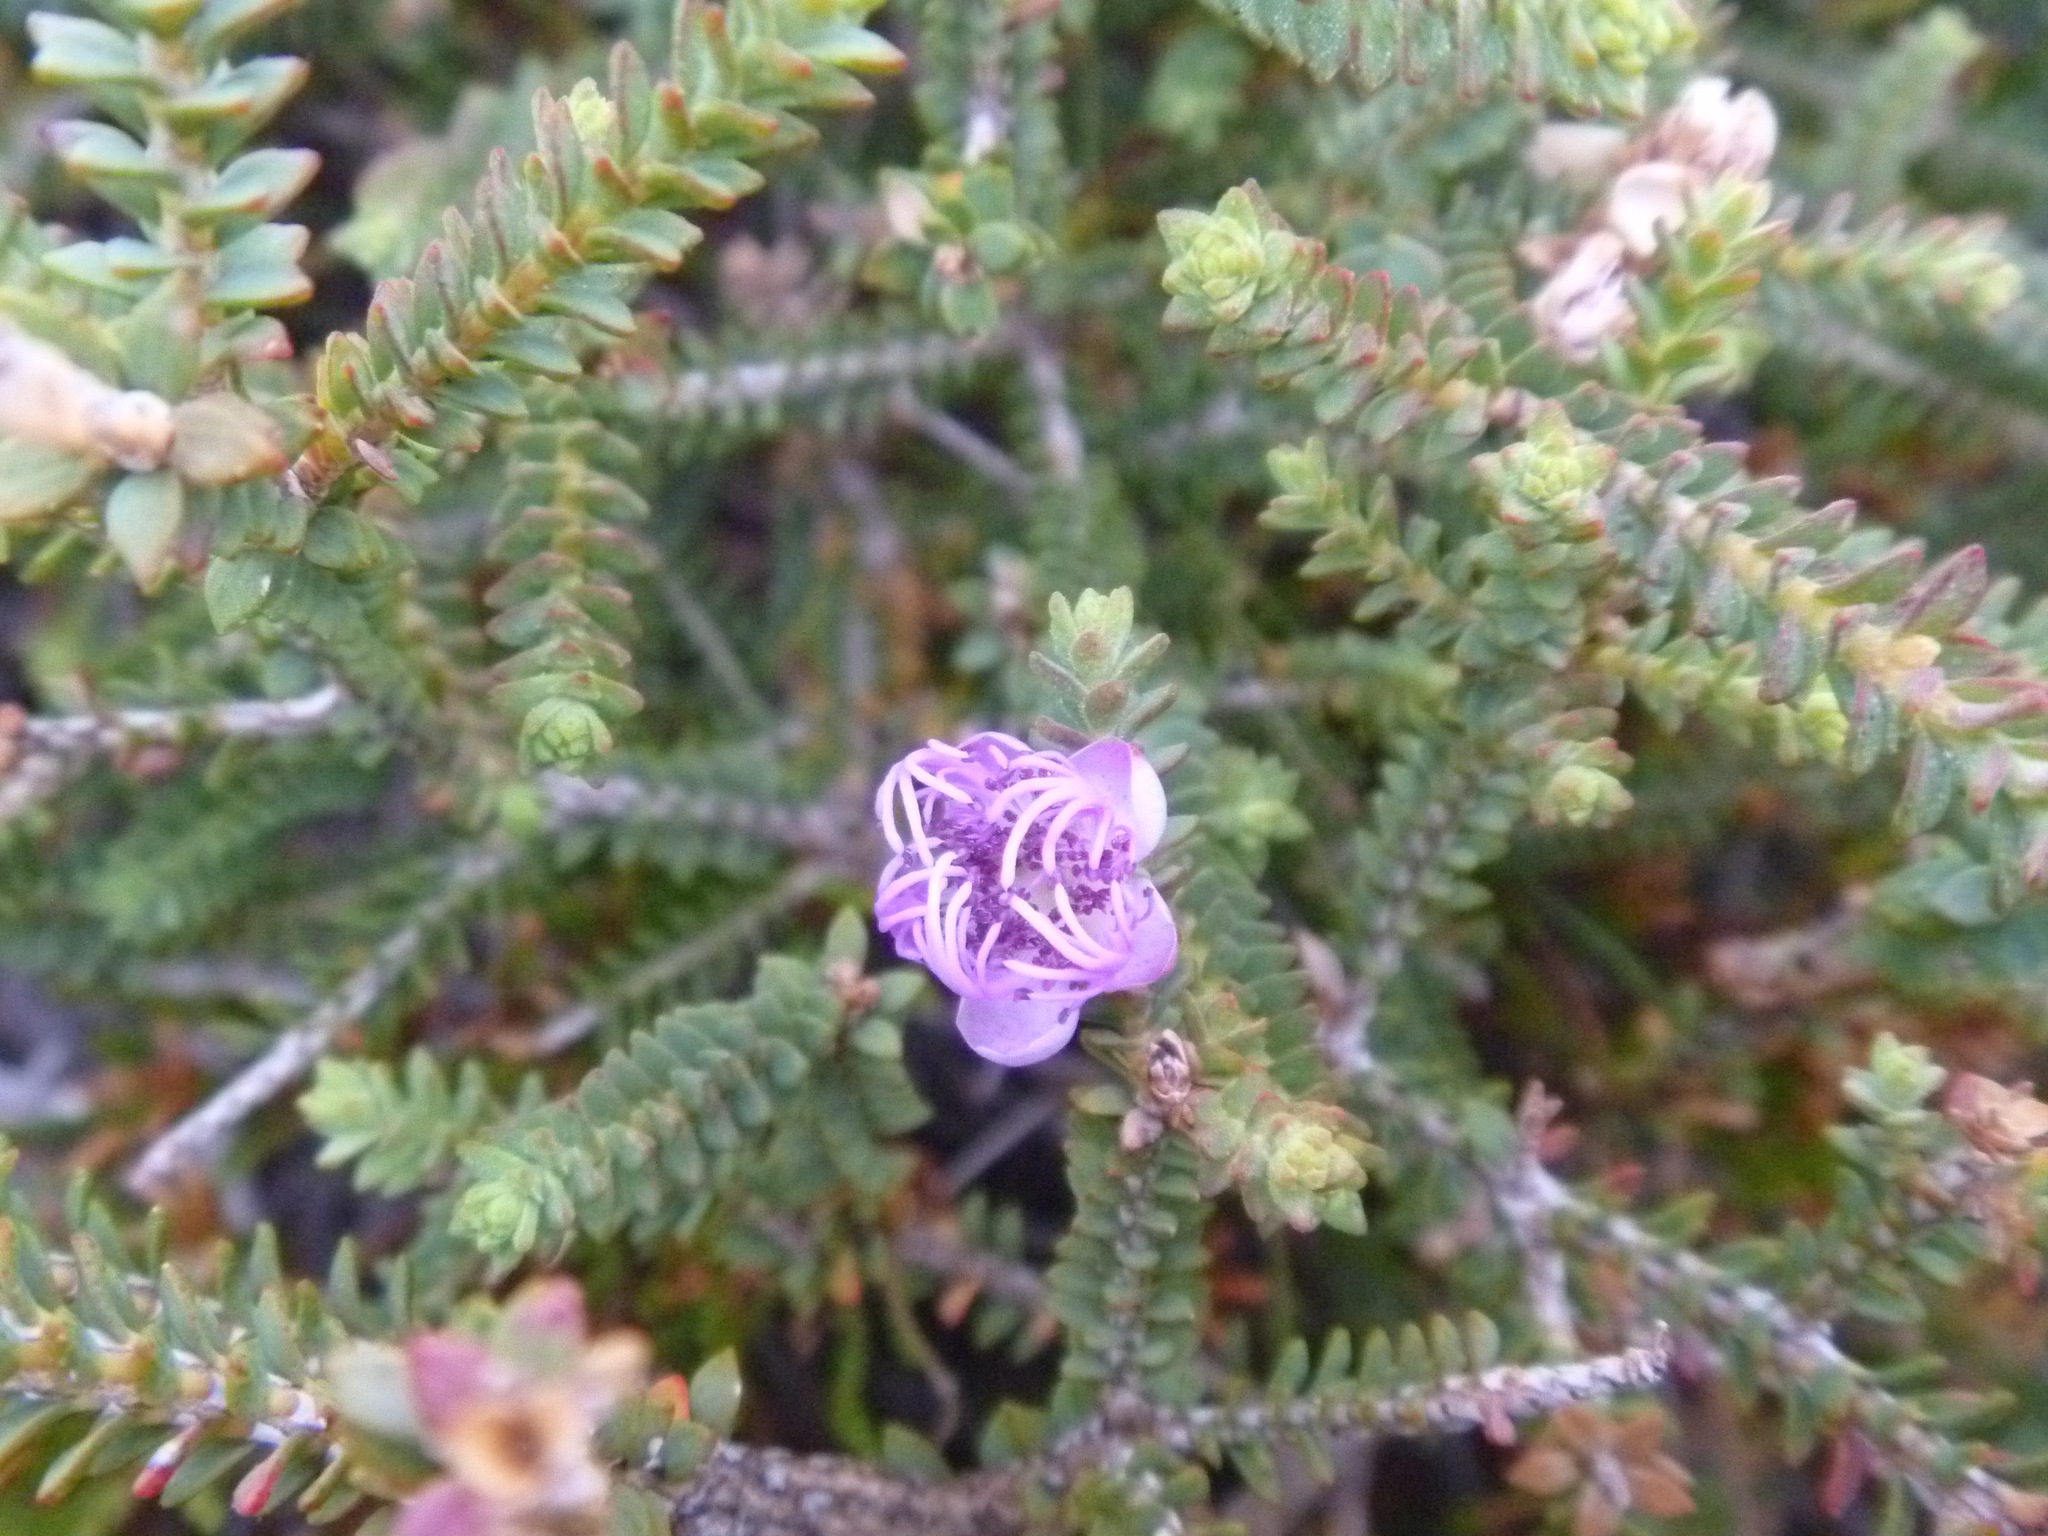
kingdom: Plantae
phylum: Tracheophyta
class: Magnoliopsida
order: Myrtales
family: Myrtaceae
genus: Melaleuca
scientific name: Melaleuca pulchella
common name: Claw-flower
